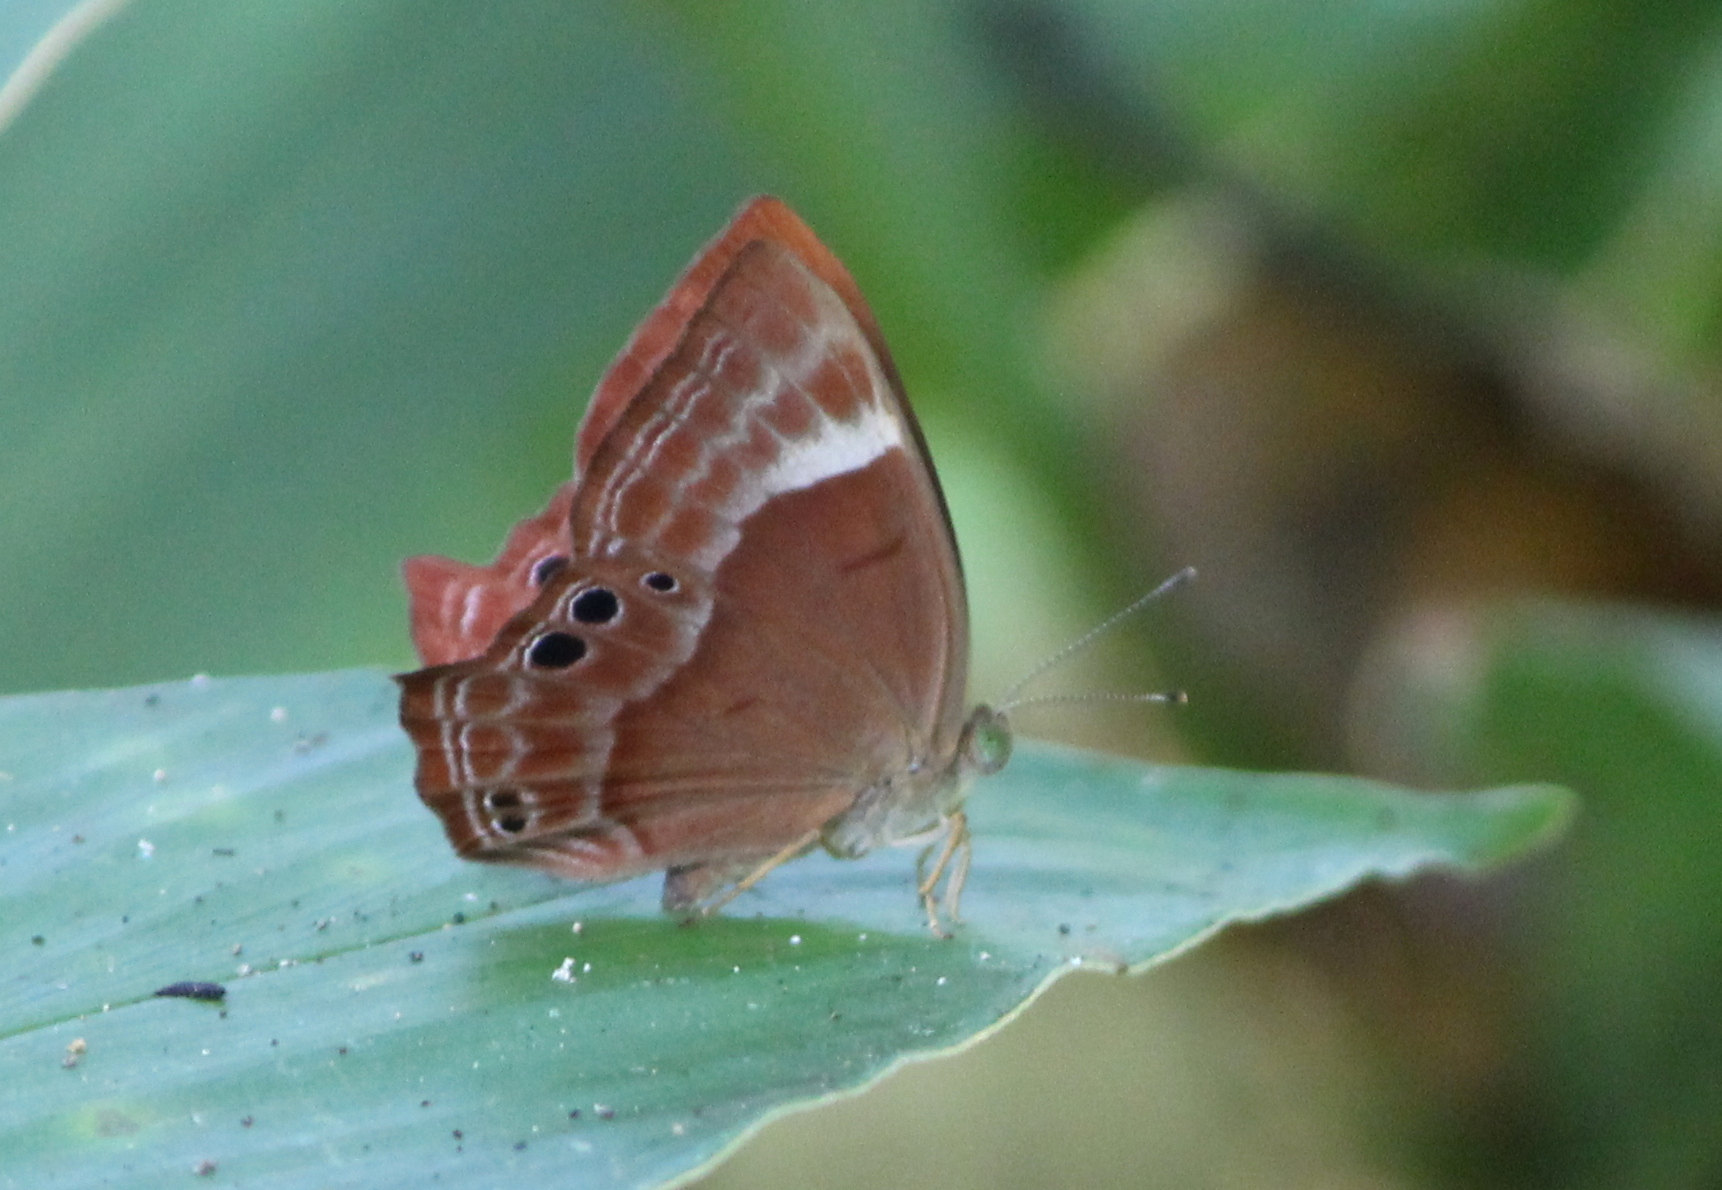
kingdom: Animalia
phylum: Arthropoda
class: Insecta
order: Lepidoptera
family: Lycaenidae
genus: Abisara
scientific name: Abisara bifasciata
